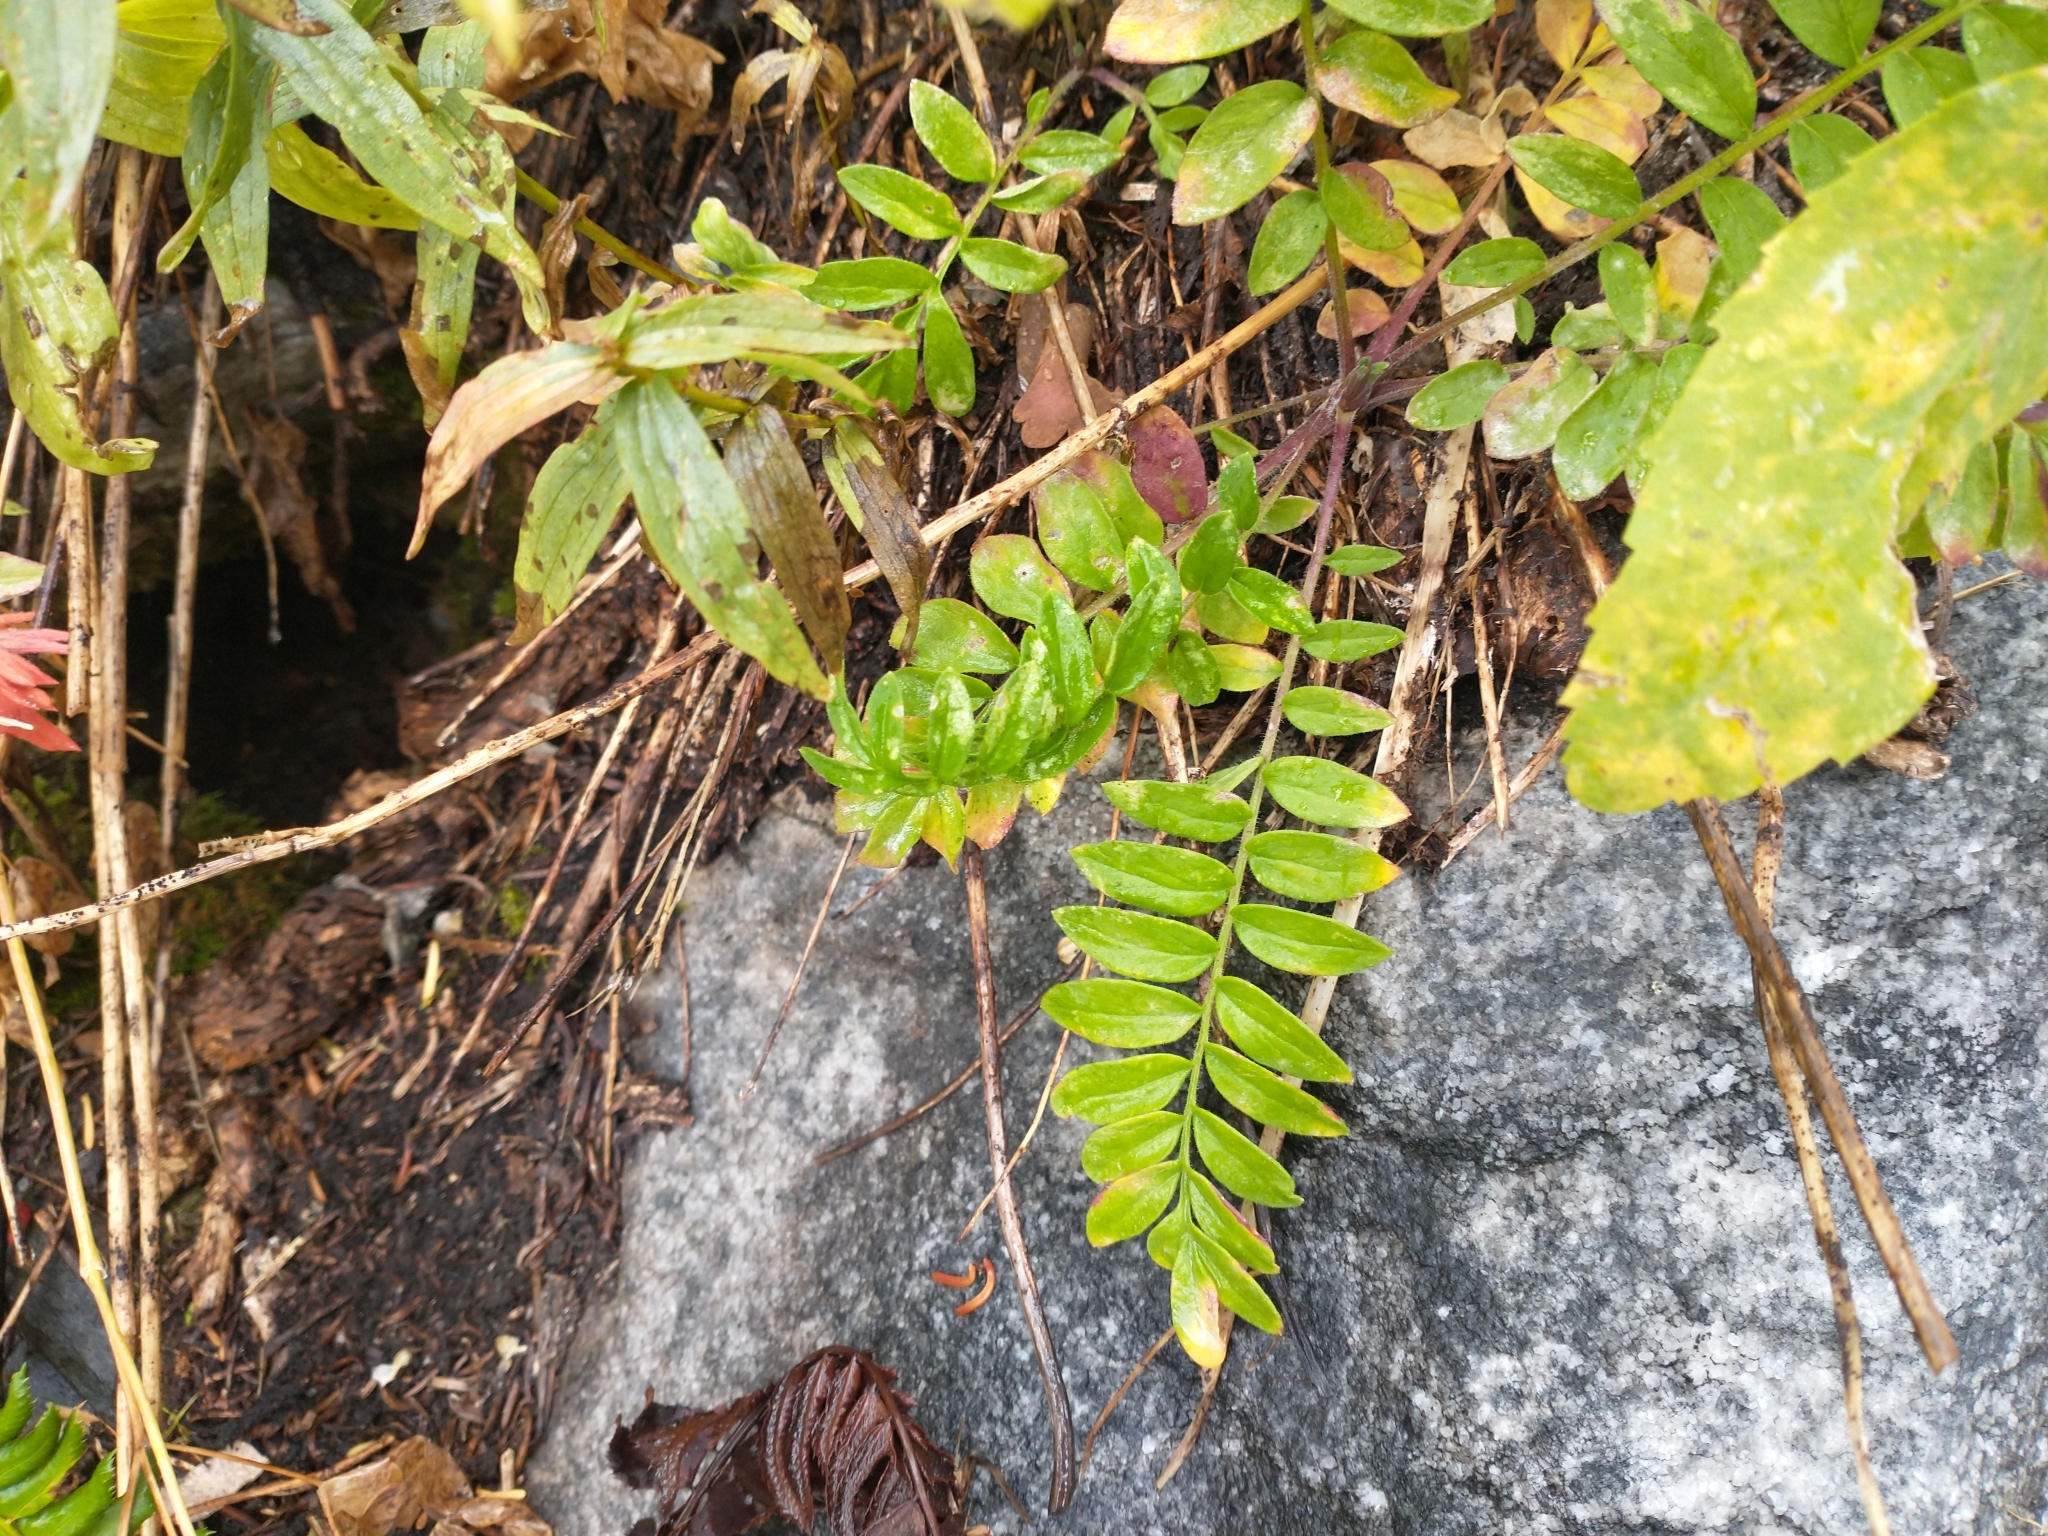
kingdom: Plantae
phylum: Tracheophyta
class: Magnoliopsida
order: Ericales
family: Polemoniaceae
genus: Polemonium
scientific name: Polemonium californicum
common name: California jacob's ladder
